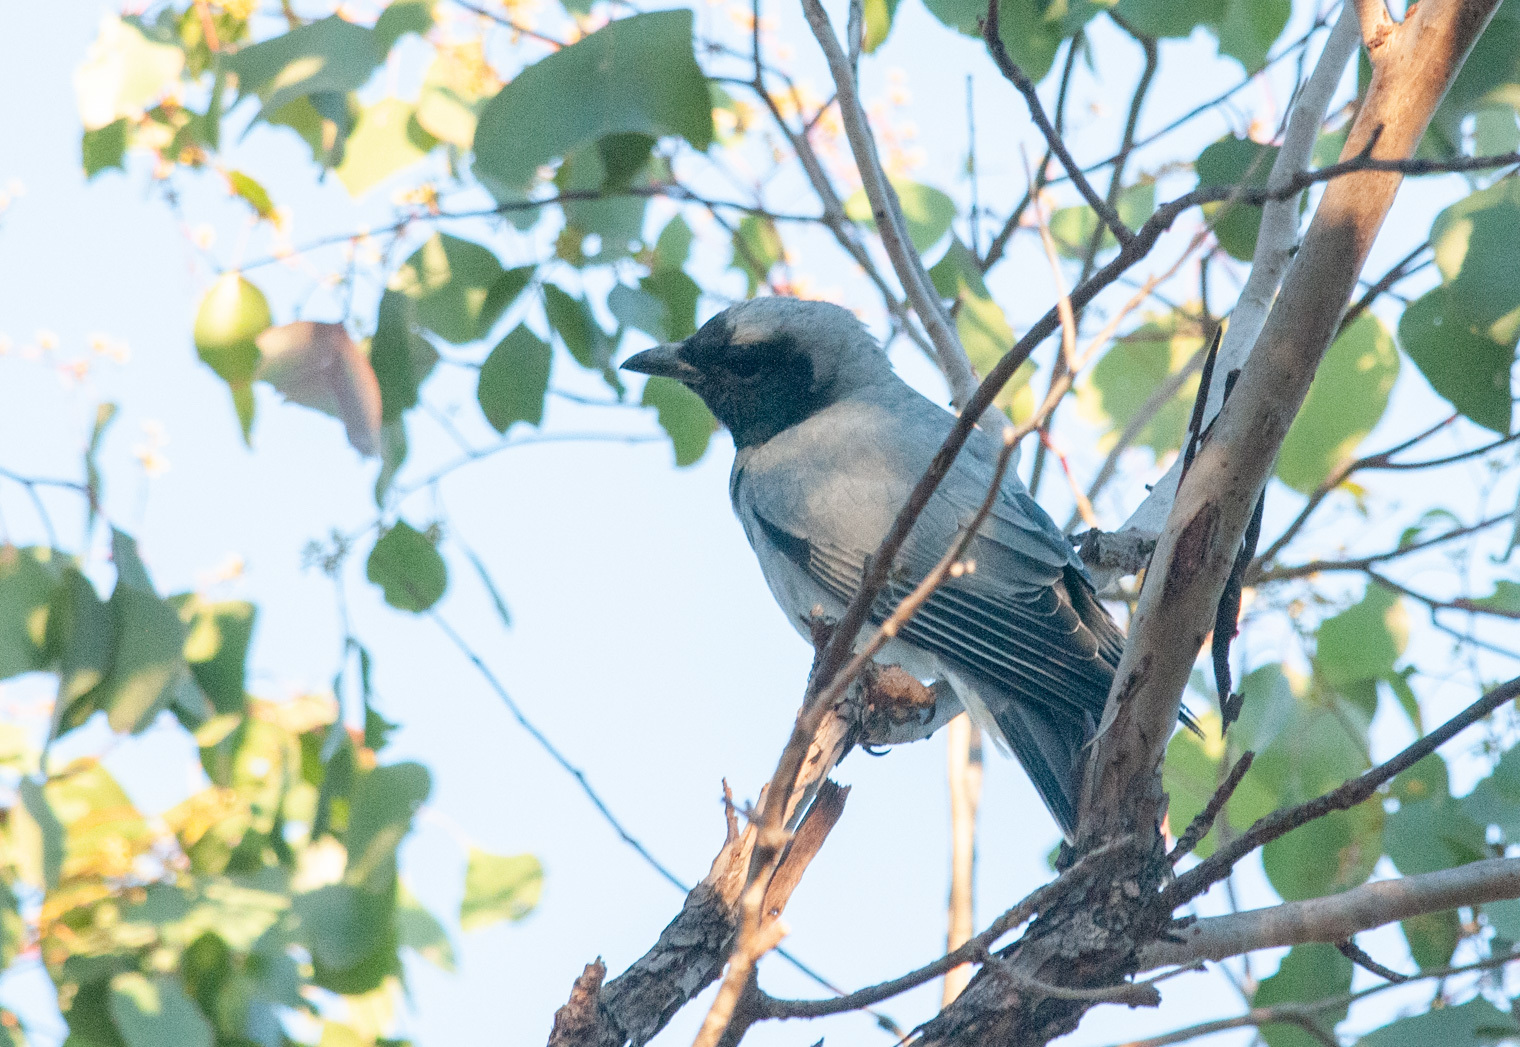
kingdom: Animalia
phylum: Chordata
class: Aves
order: Passeriformes
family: Campephagidae
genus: Coracina
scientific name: Coracina novaehollandiae
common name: Black-faced cuckooshrike
